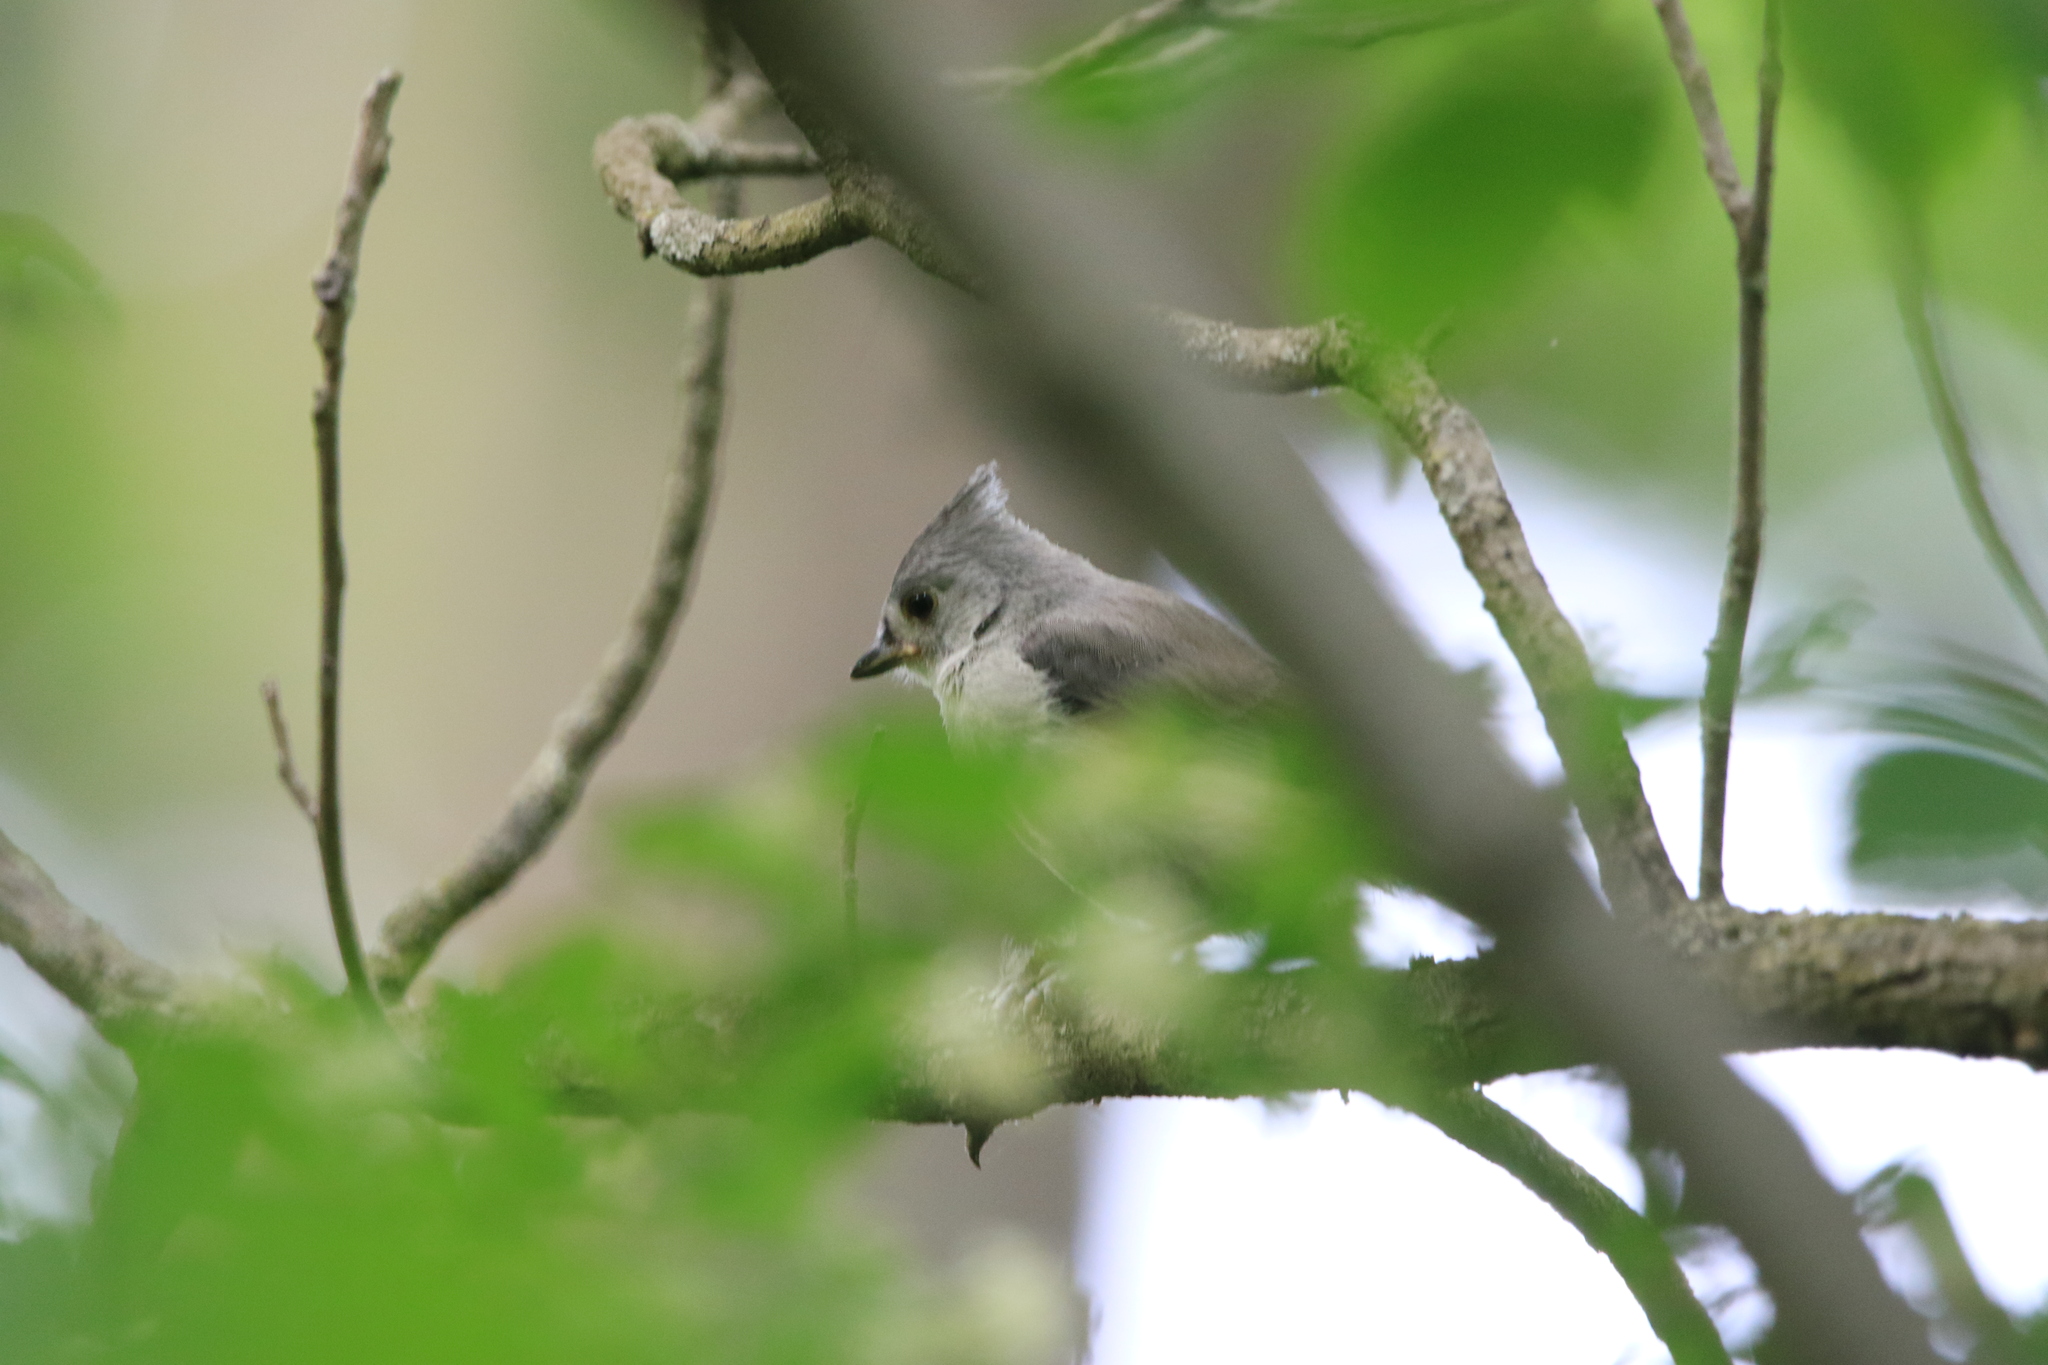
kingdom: Animalia
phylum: Chordata
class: Aves
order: Passeriformes
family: Paridae
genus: Baeolophus
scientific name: Baeolophus bicolor
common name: Tufted titmouse
